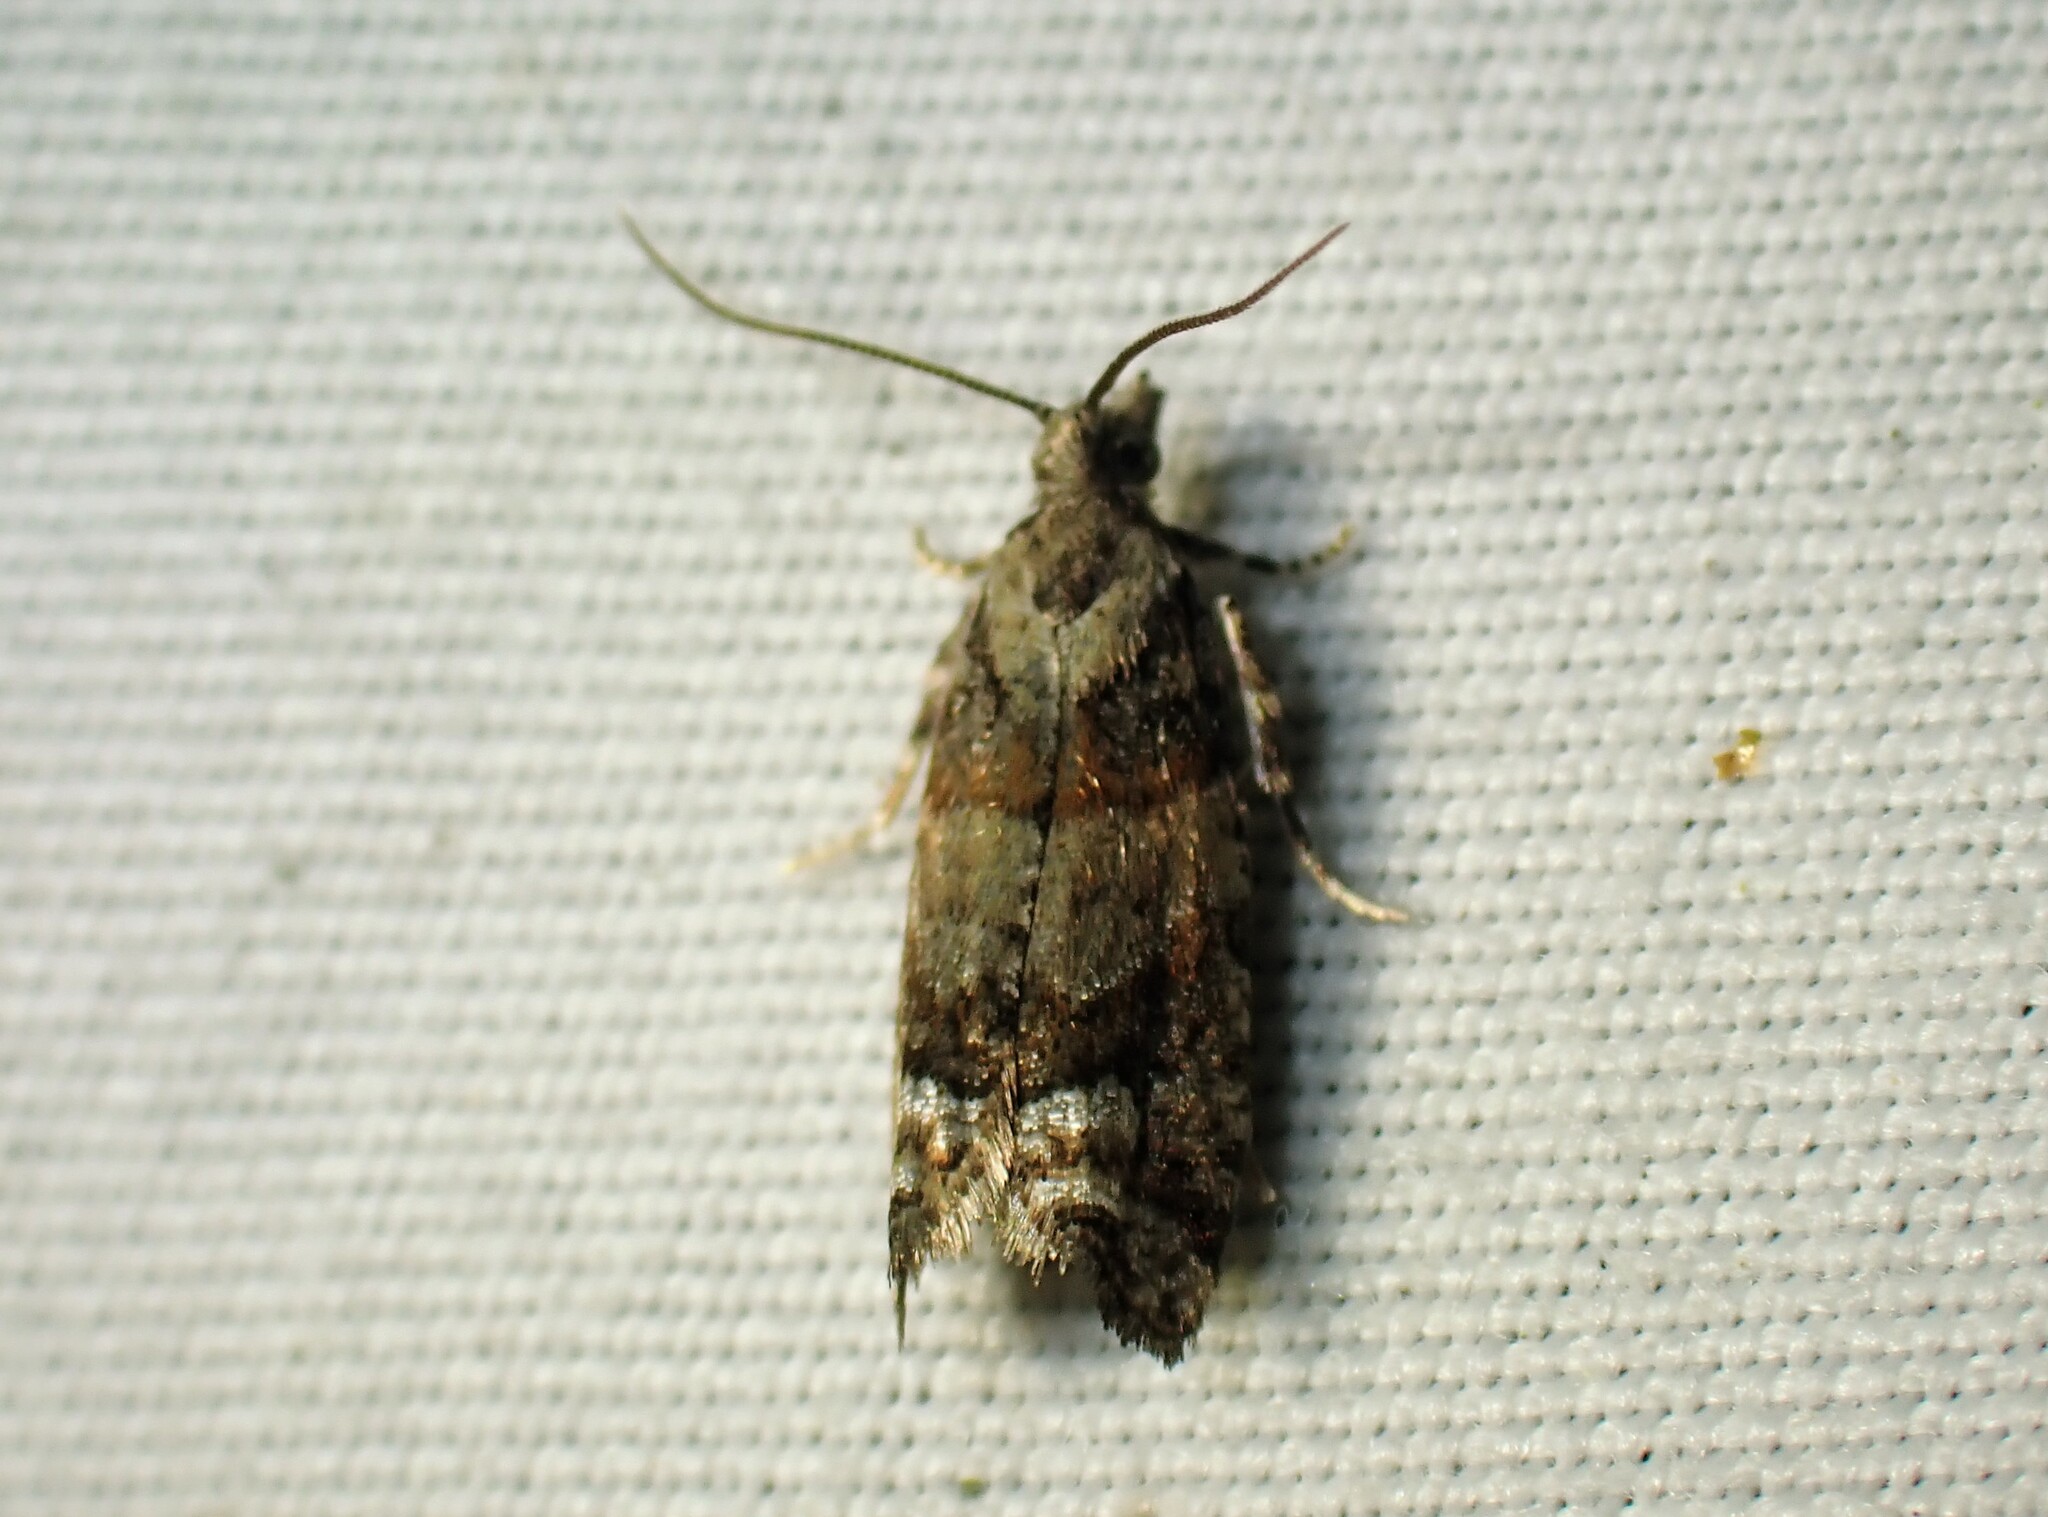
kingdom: Animalia
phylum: Arthropoda
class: Insecta
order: Lepidoptera
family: Tortricidae
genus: Epinotia
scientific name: Epinotia radicana
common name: Red-striped needleworm moth
